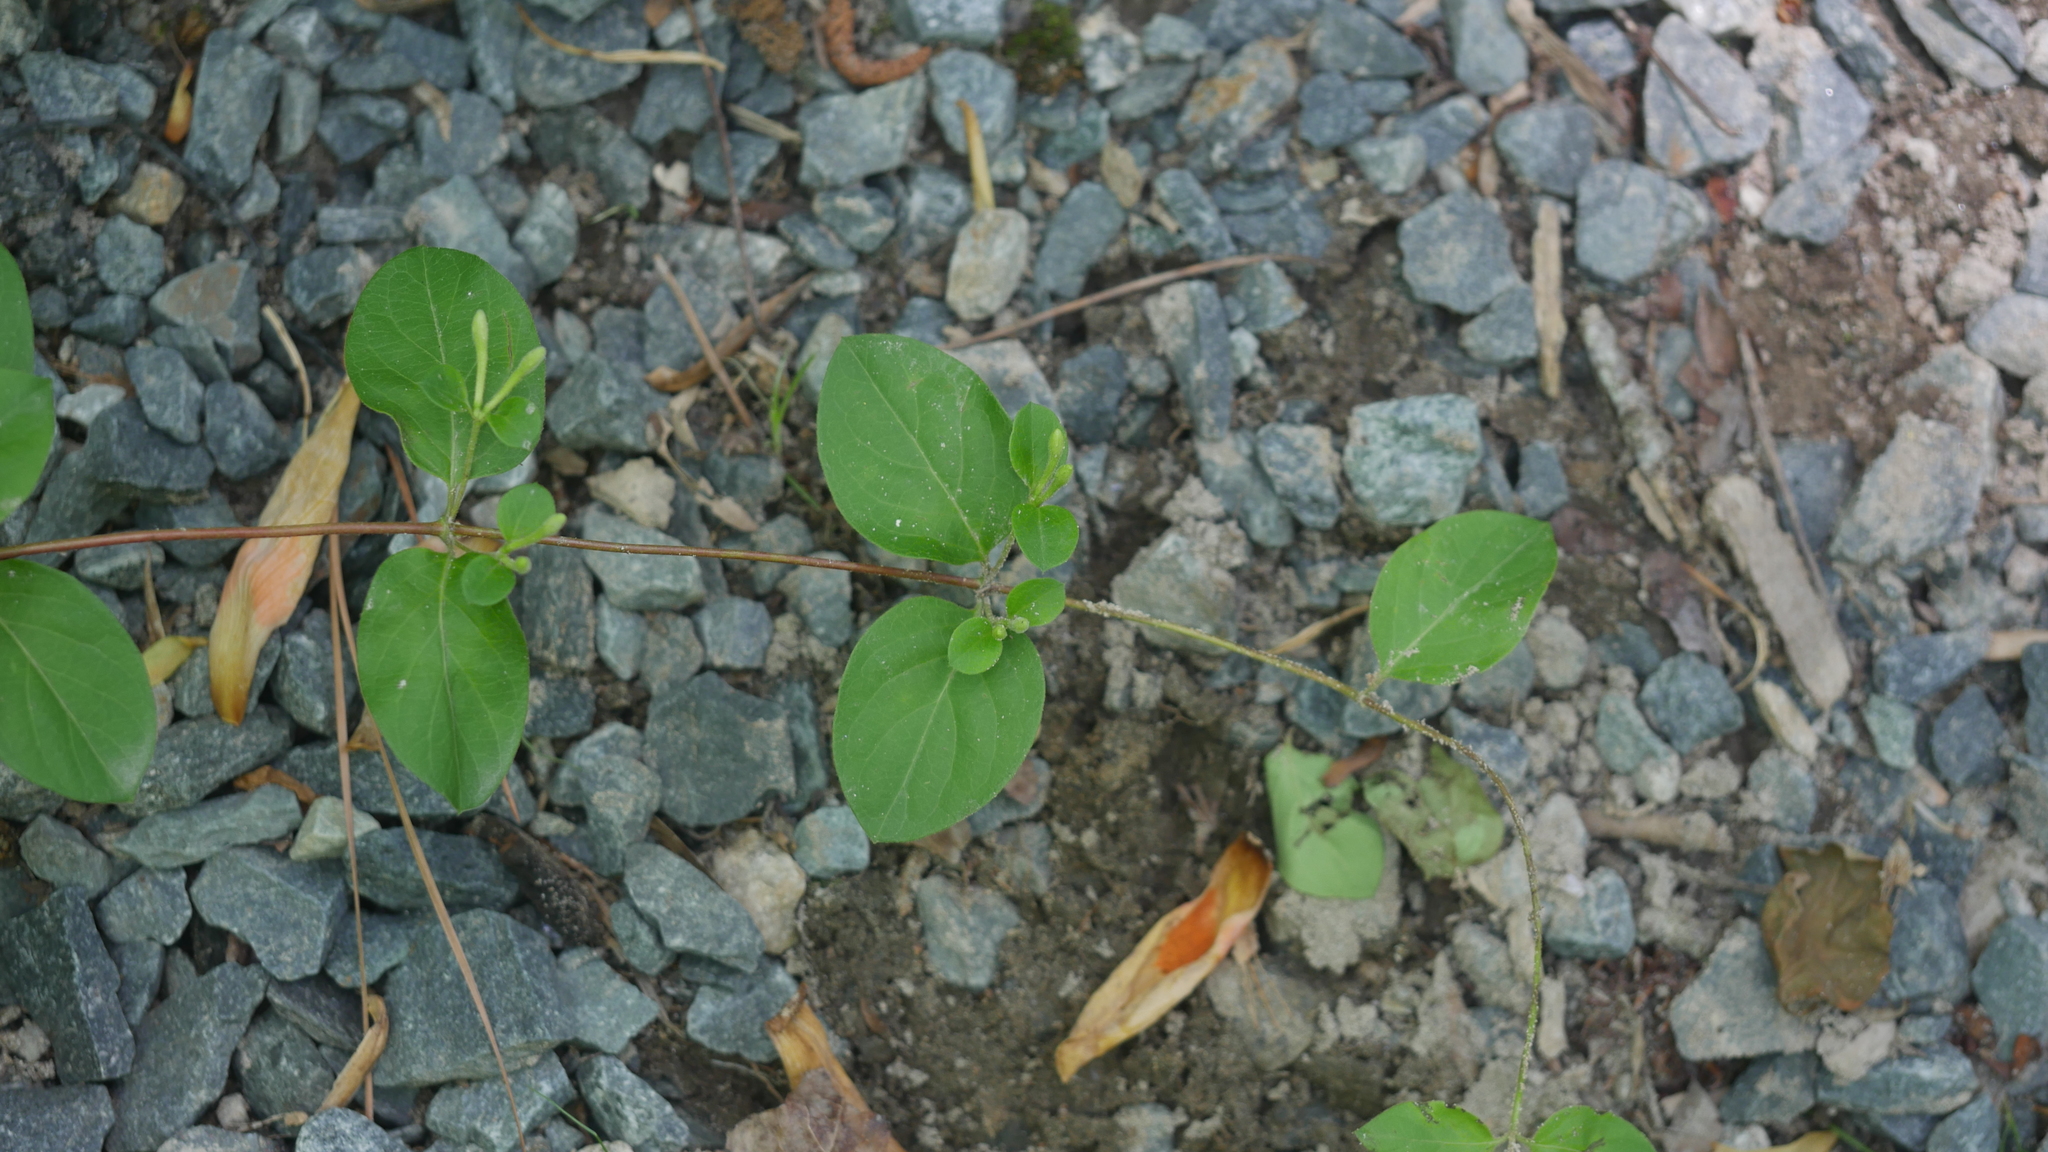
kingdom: Plantae
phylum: Tracheophyta
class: Magnoliopsida
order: Dipsacales
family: Caprifoliaceae
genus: Lonicera
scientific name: Lonicera japonica
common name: Japanese honeysuckle
